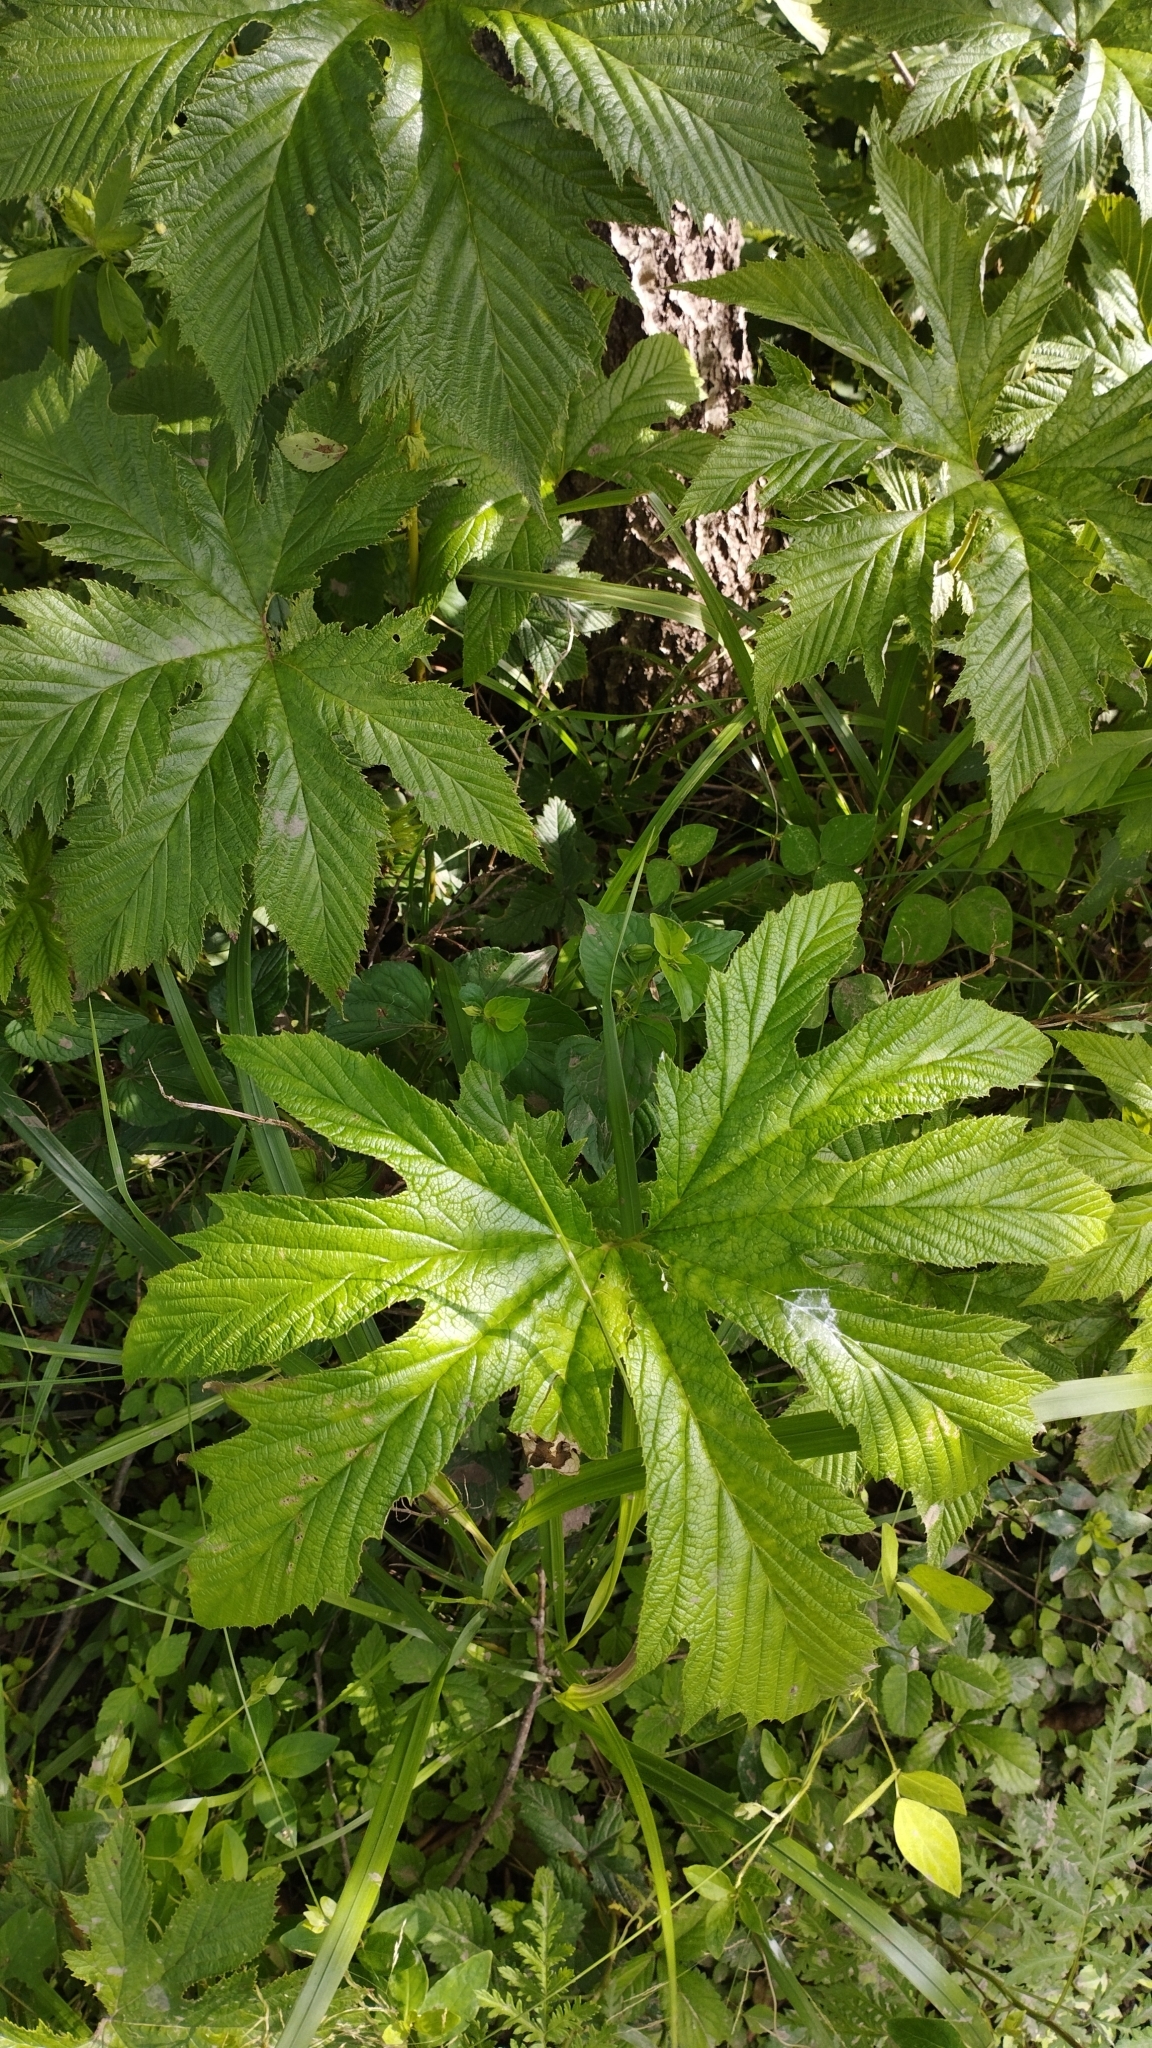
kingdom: Plantae
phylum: Tracheophyta
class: Magnoliopsida
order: Rosales
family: Rosaceae
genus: Filipendula
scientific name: Filipendula digitata
